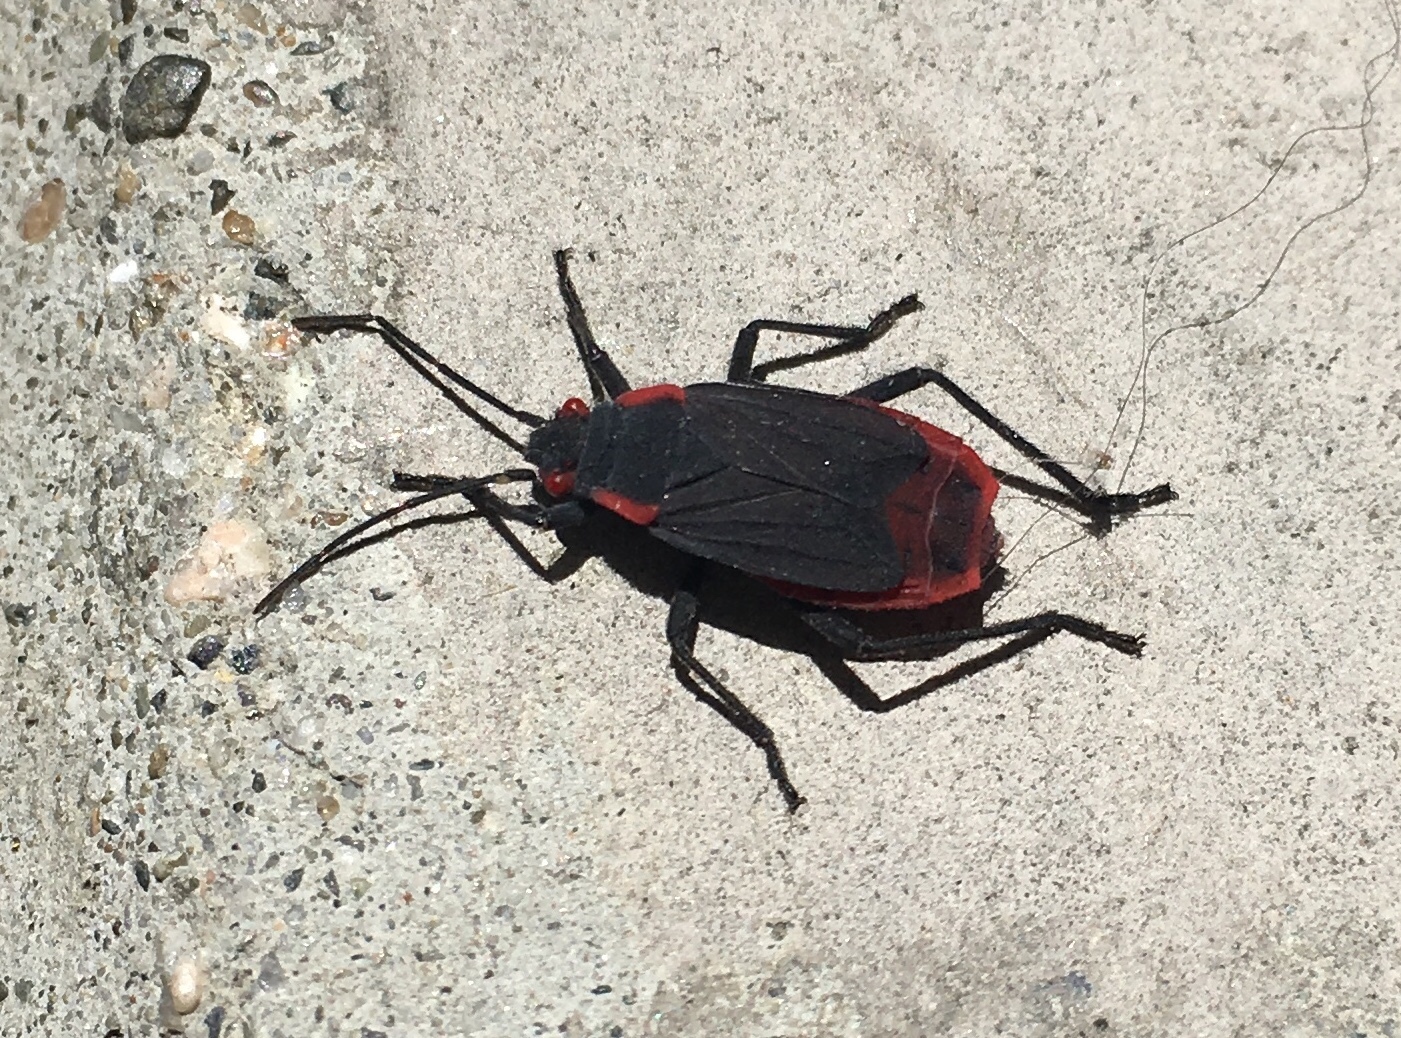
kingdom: Animalia
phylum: Arthropoda
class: Insecta
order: Hemiptera
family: Rhopalidae
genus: Jadera
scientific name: Jadera haematoloma
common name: Red-shouldered bug
